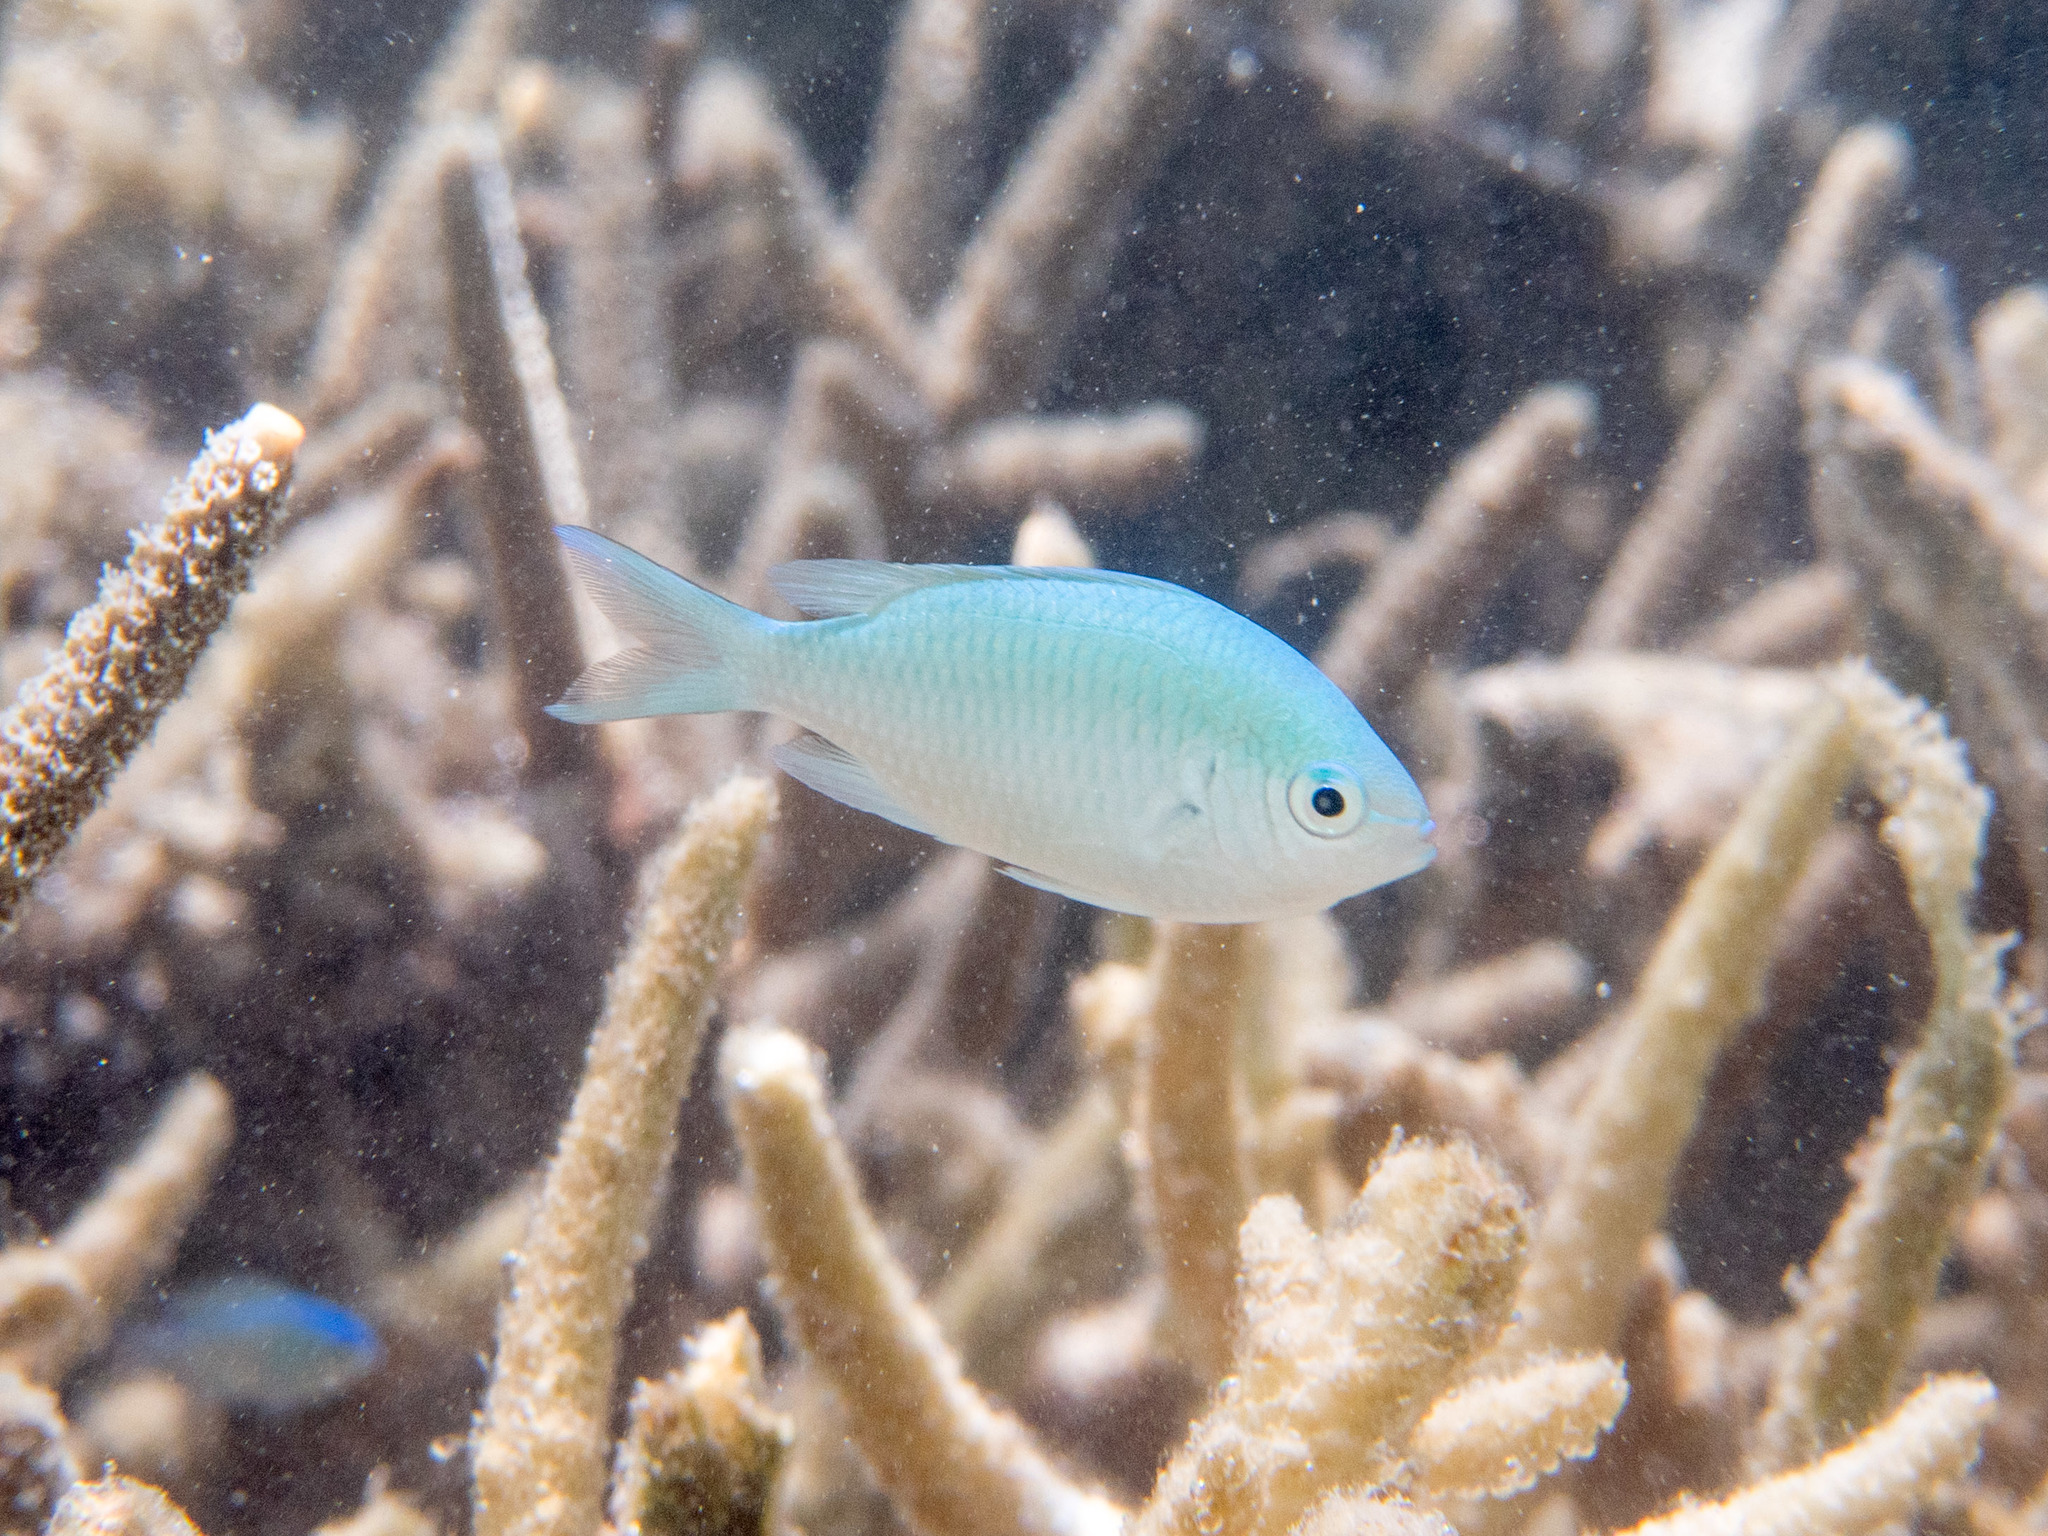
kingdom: Animalia
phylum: Chordata
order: Perciformes
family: Pomacentridae
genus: Chromis
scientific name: Chromis viridis
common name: Blue-green chromis
